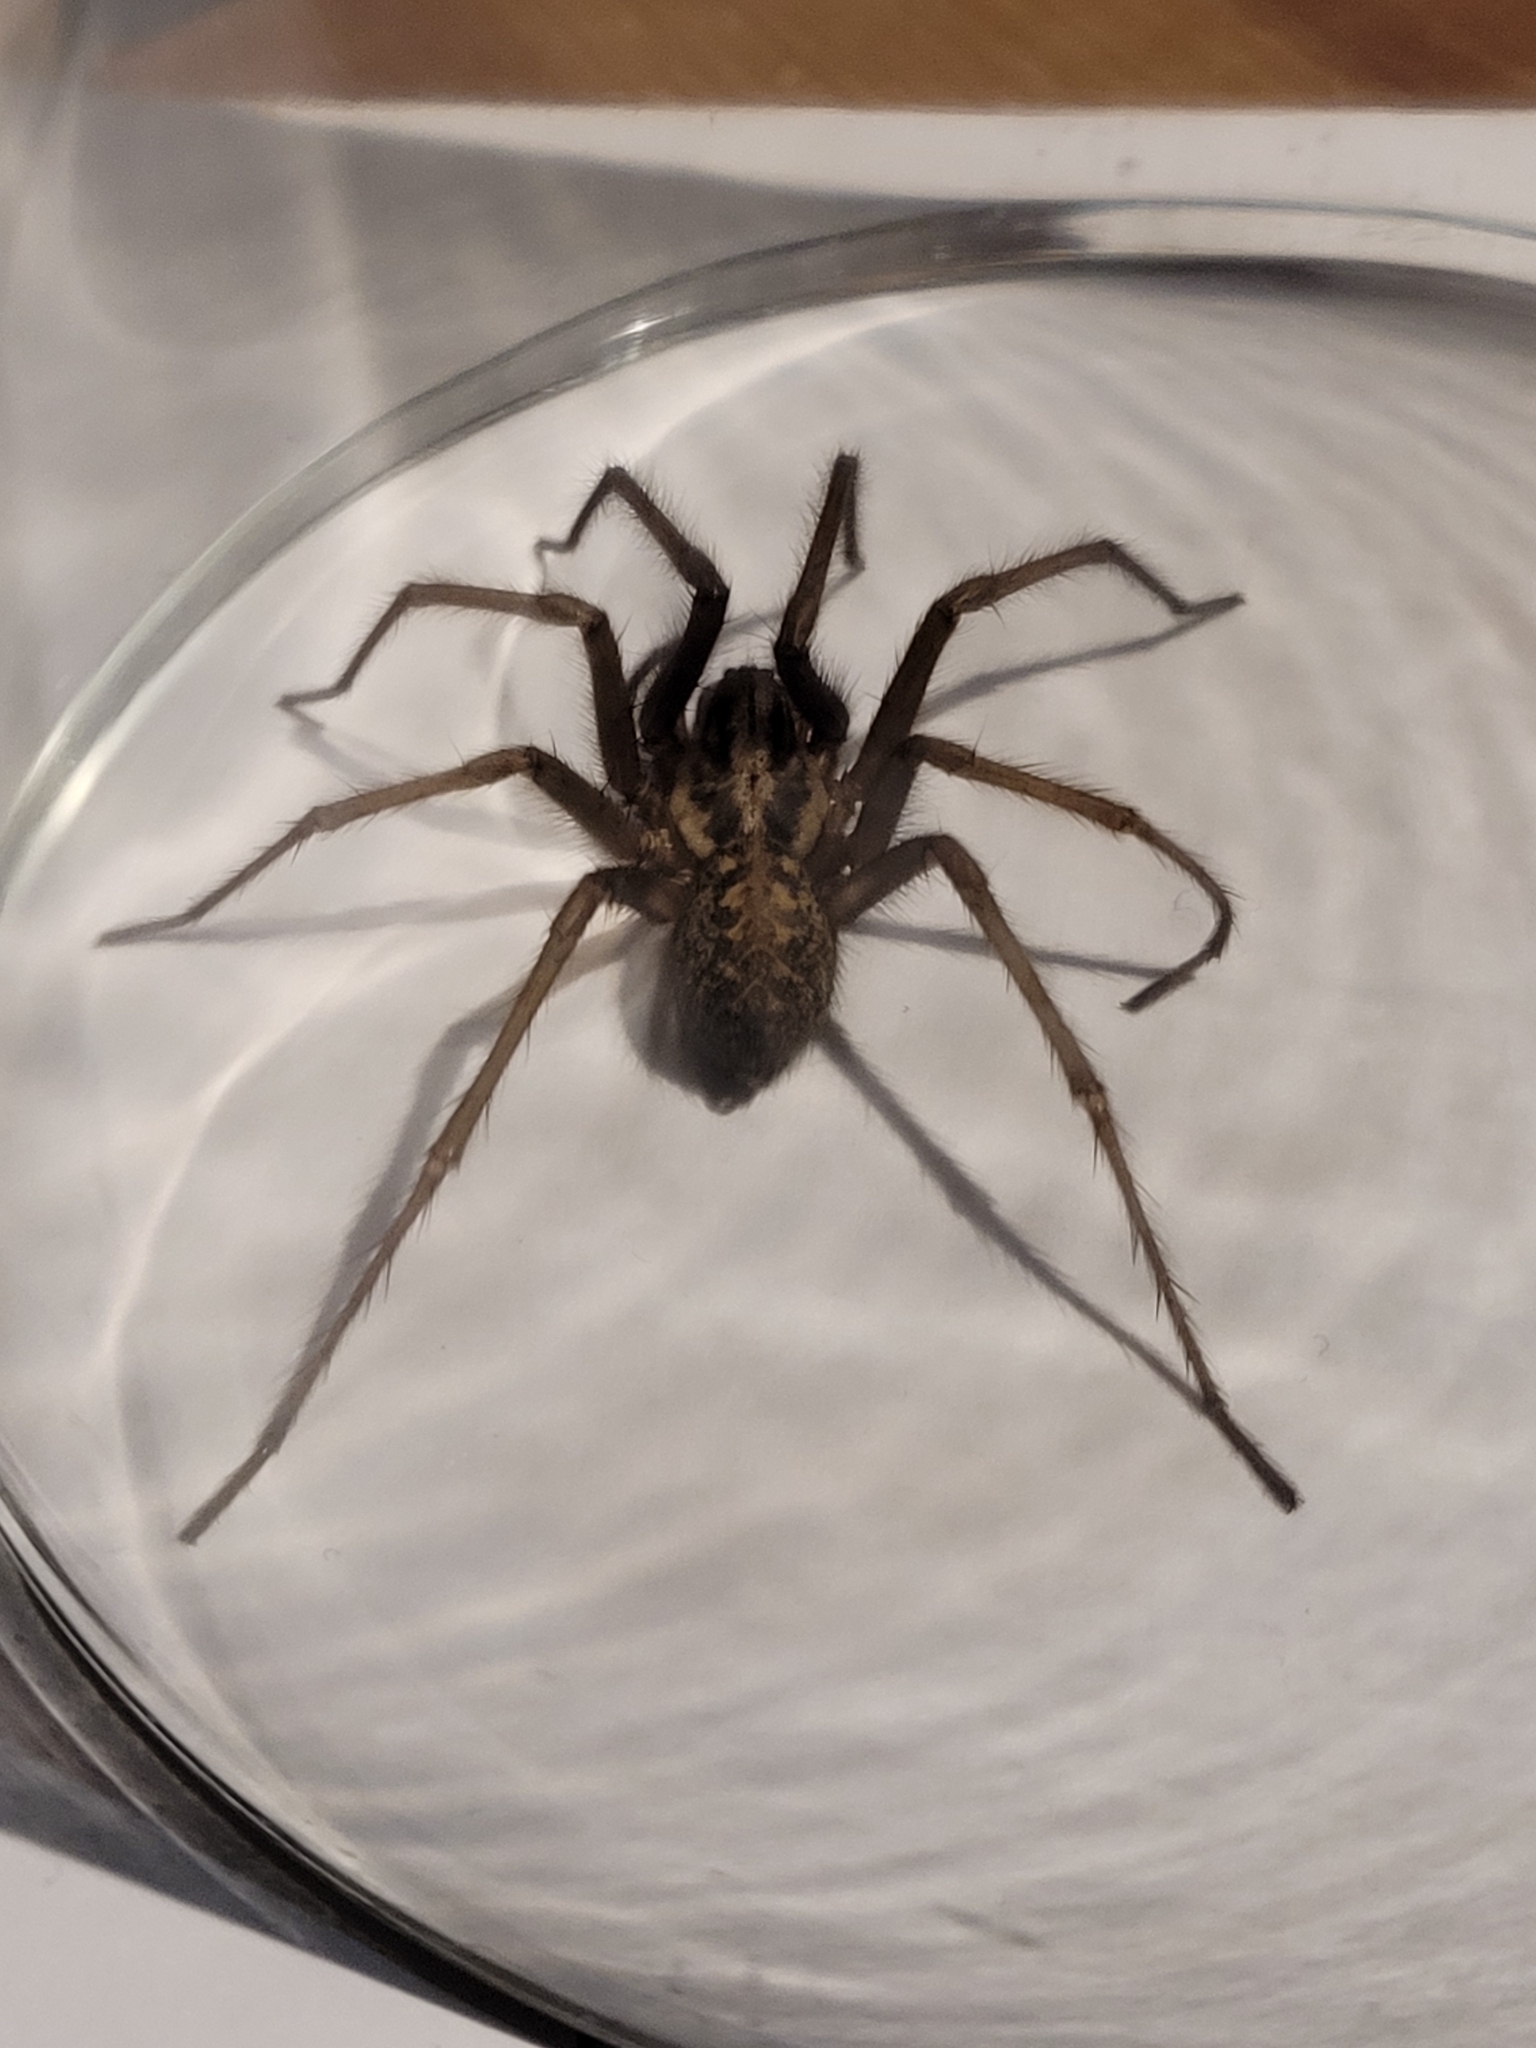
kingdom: Animalia
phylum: Arthropoda
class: Arachnida
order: Araneae
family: Agelenidae
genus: Eratigena
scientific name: Eratigena
